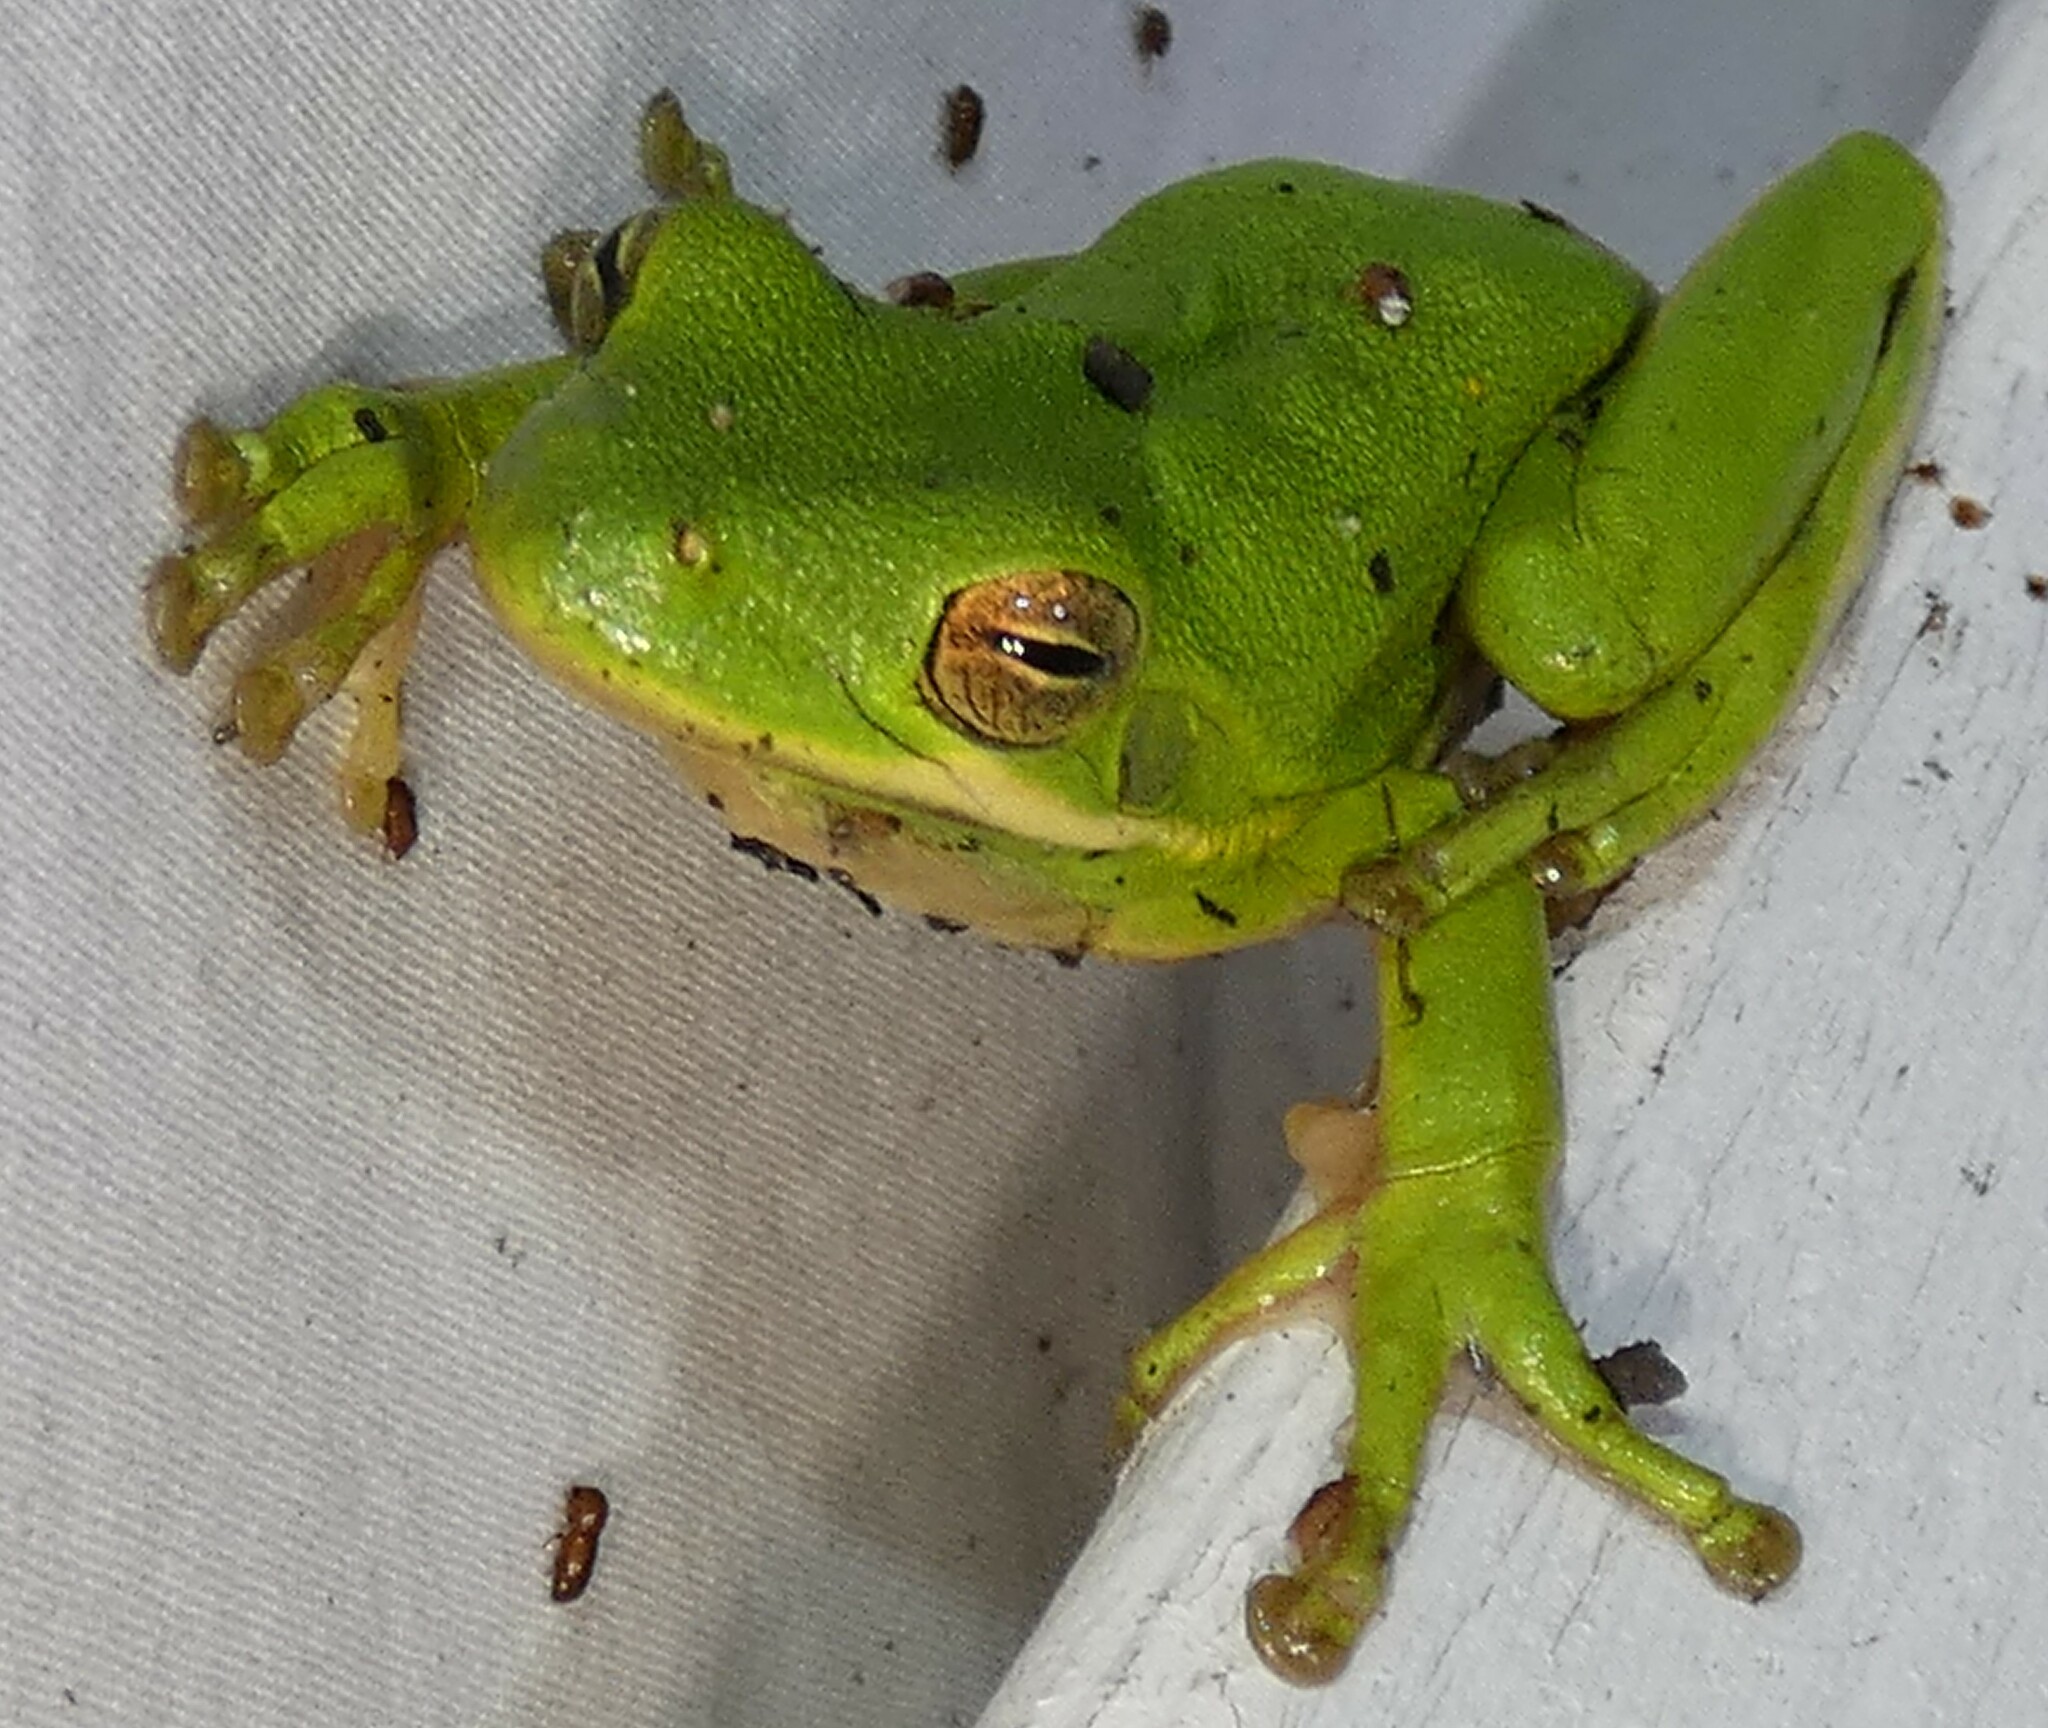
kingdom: Animalia
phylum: Chordata
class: Amphibia
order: Anura
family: Hylidae
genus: Dryophytes
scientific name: Dryophytes cinereus
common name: Green treefrog
